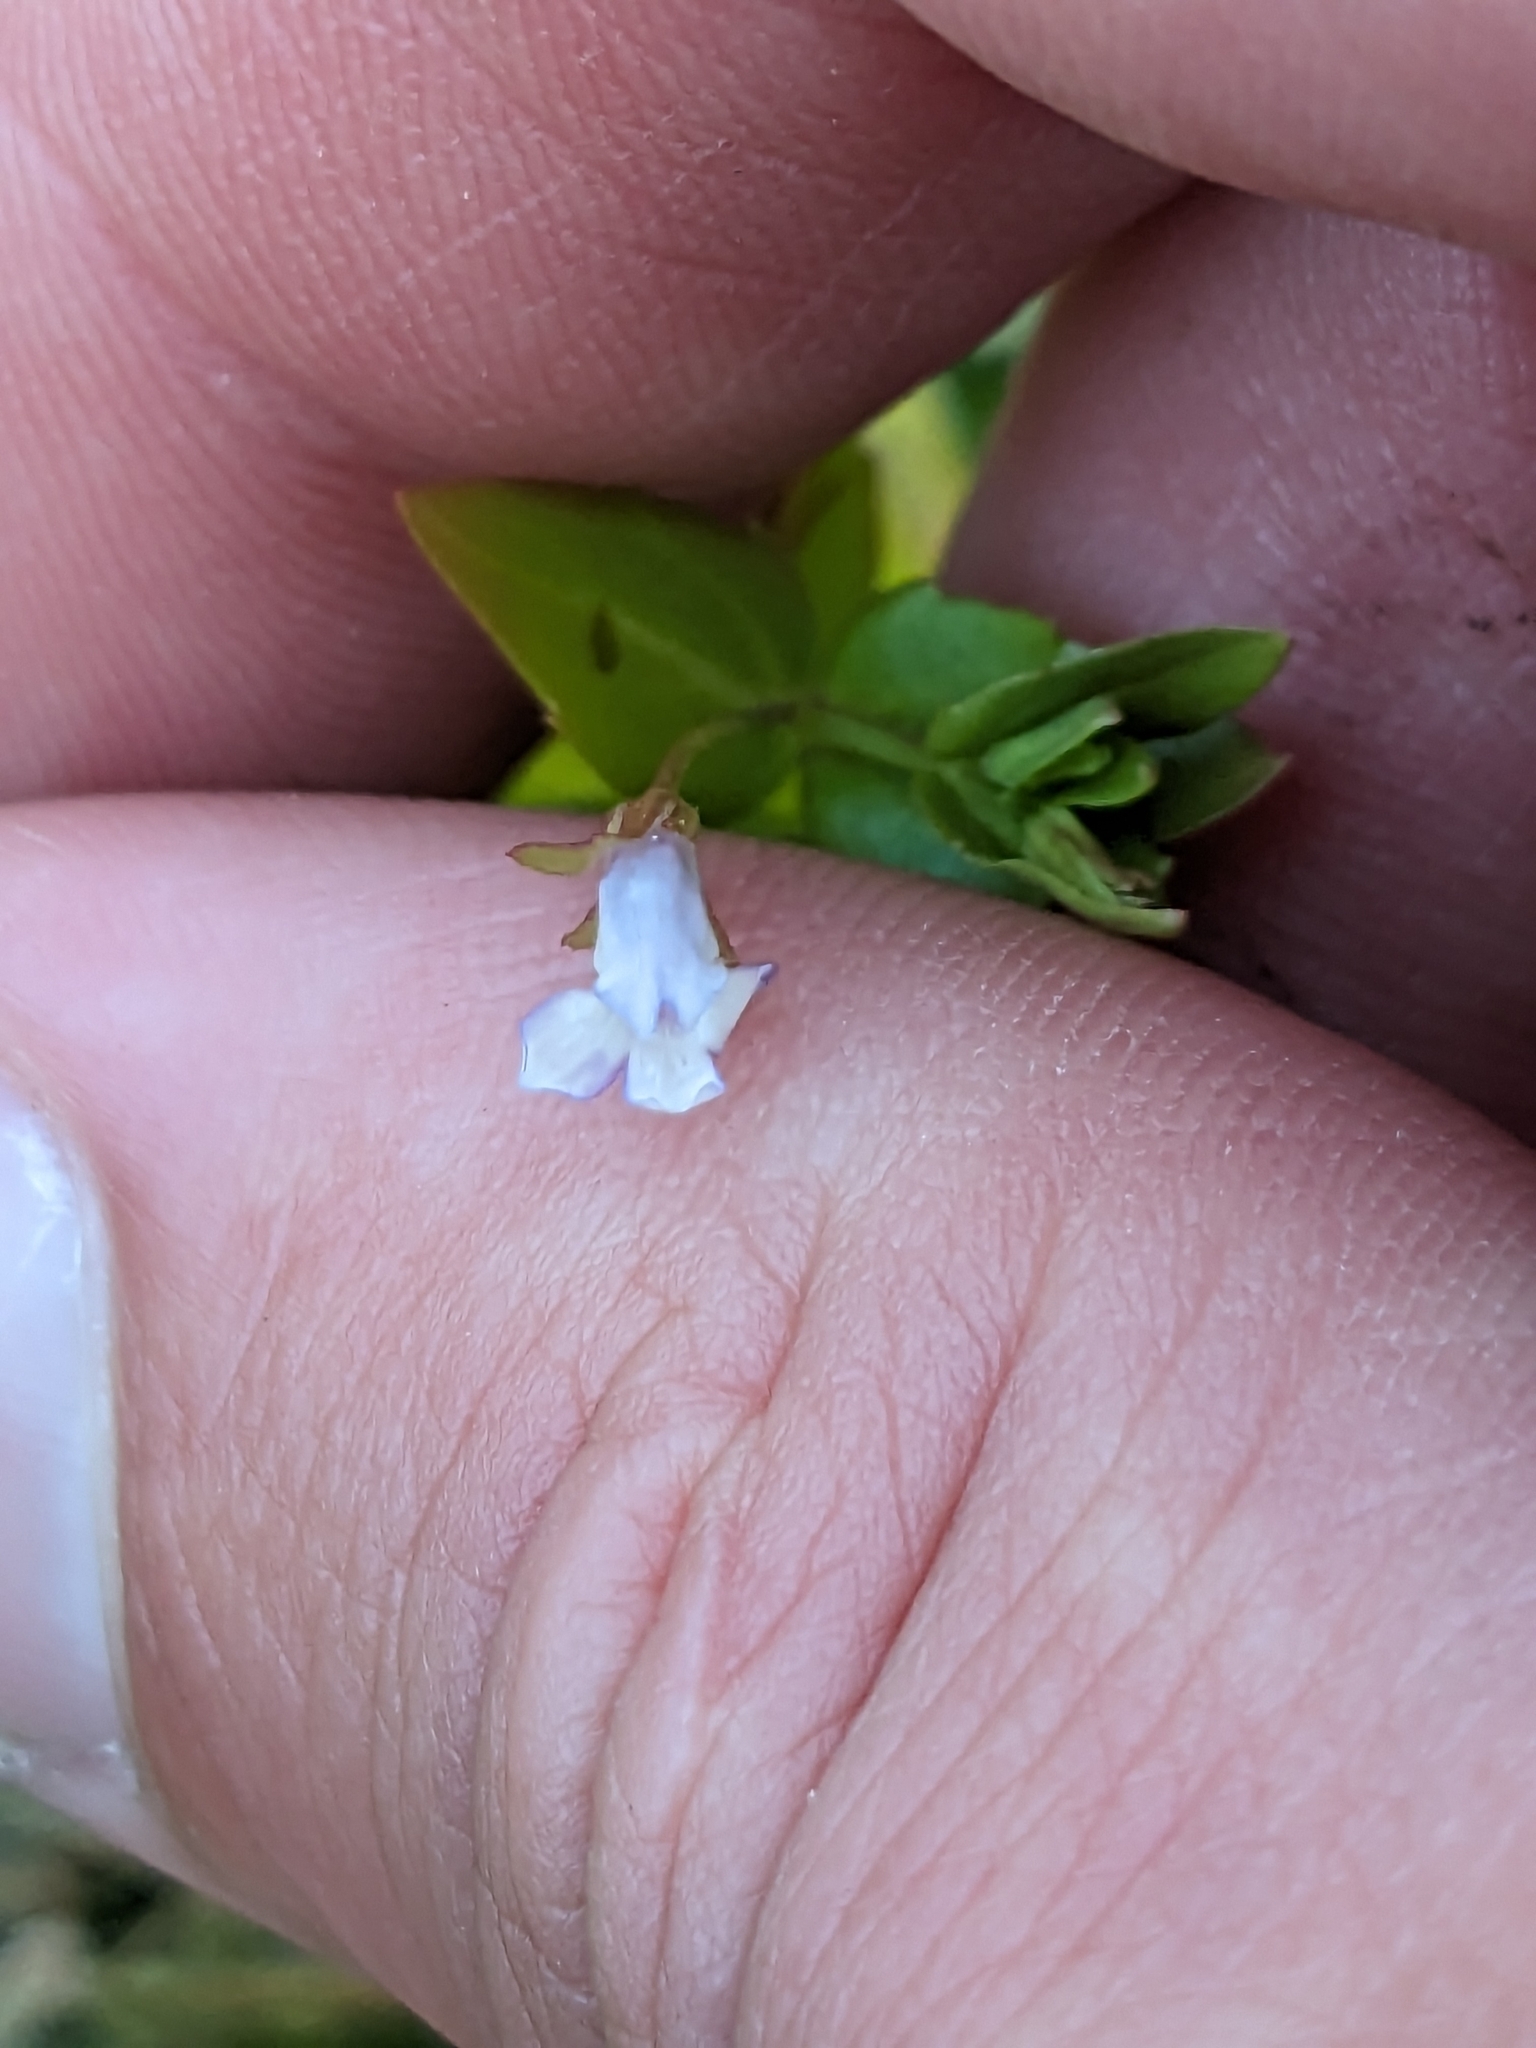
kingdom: Plantae
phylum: Tracheophyta
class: Magnoliopsida
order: Lamiales
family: Linderniaceae
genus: Lindernia
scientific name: Lindernia dubia
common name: Annual false pimpernel
